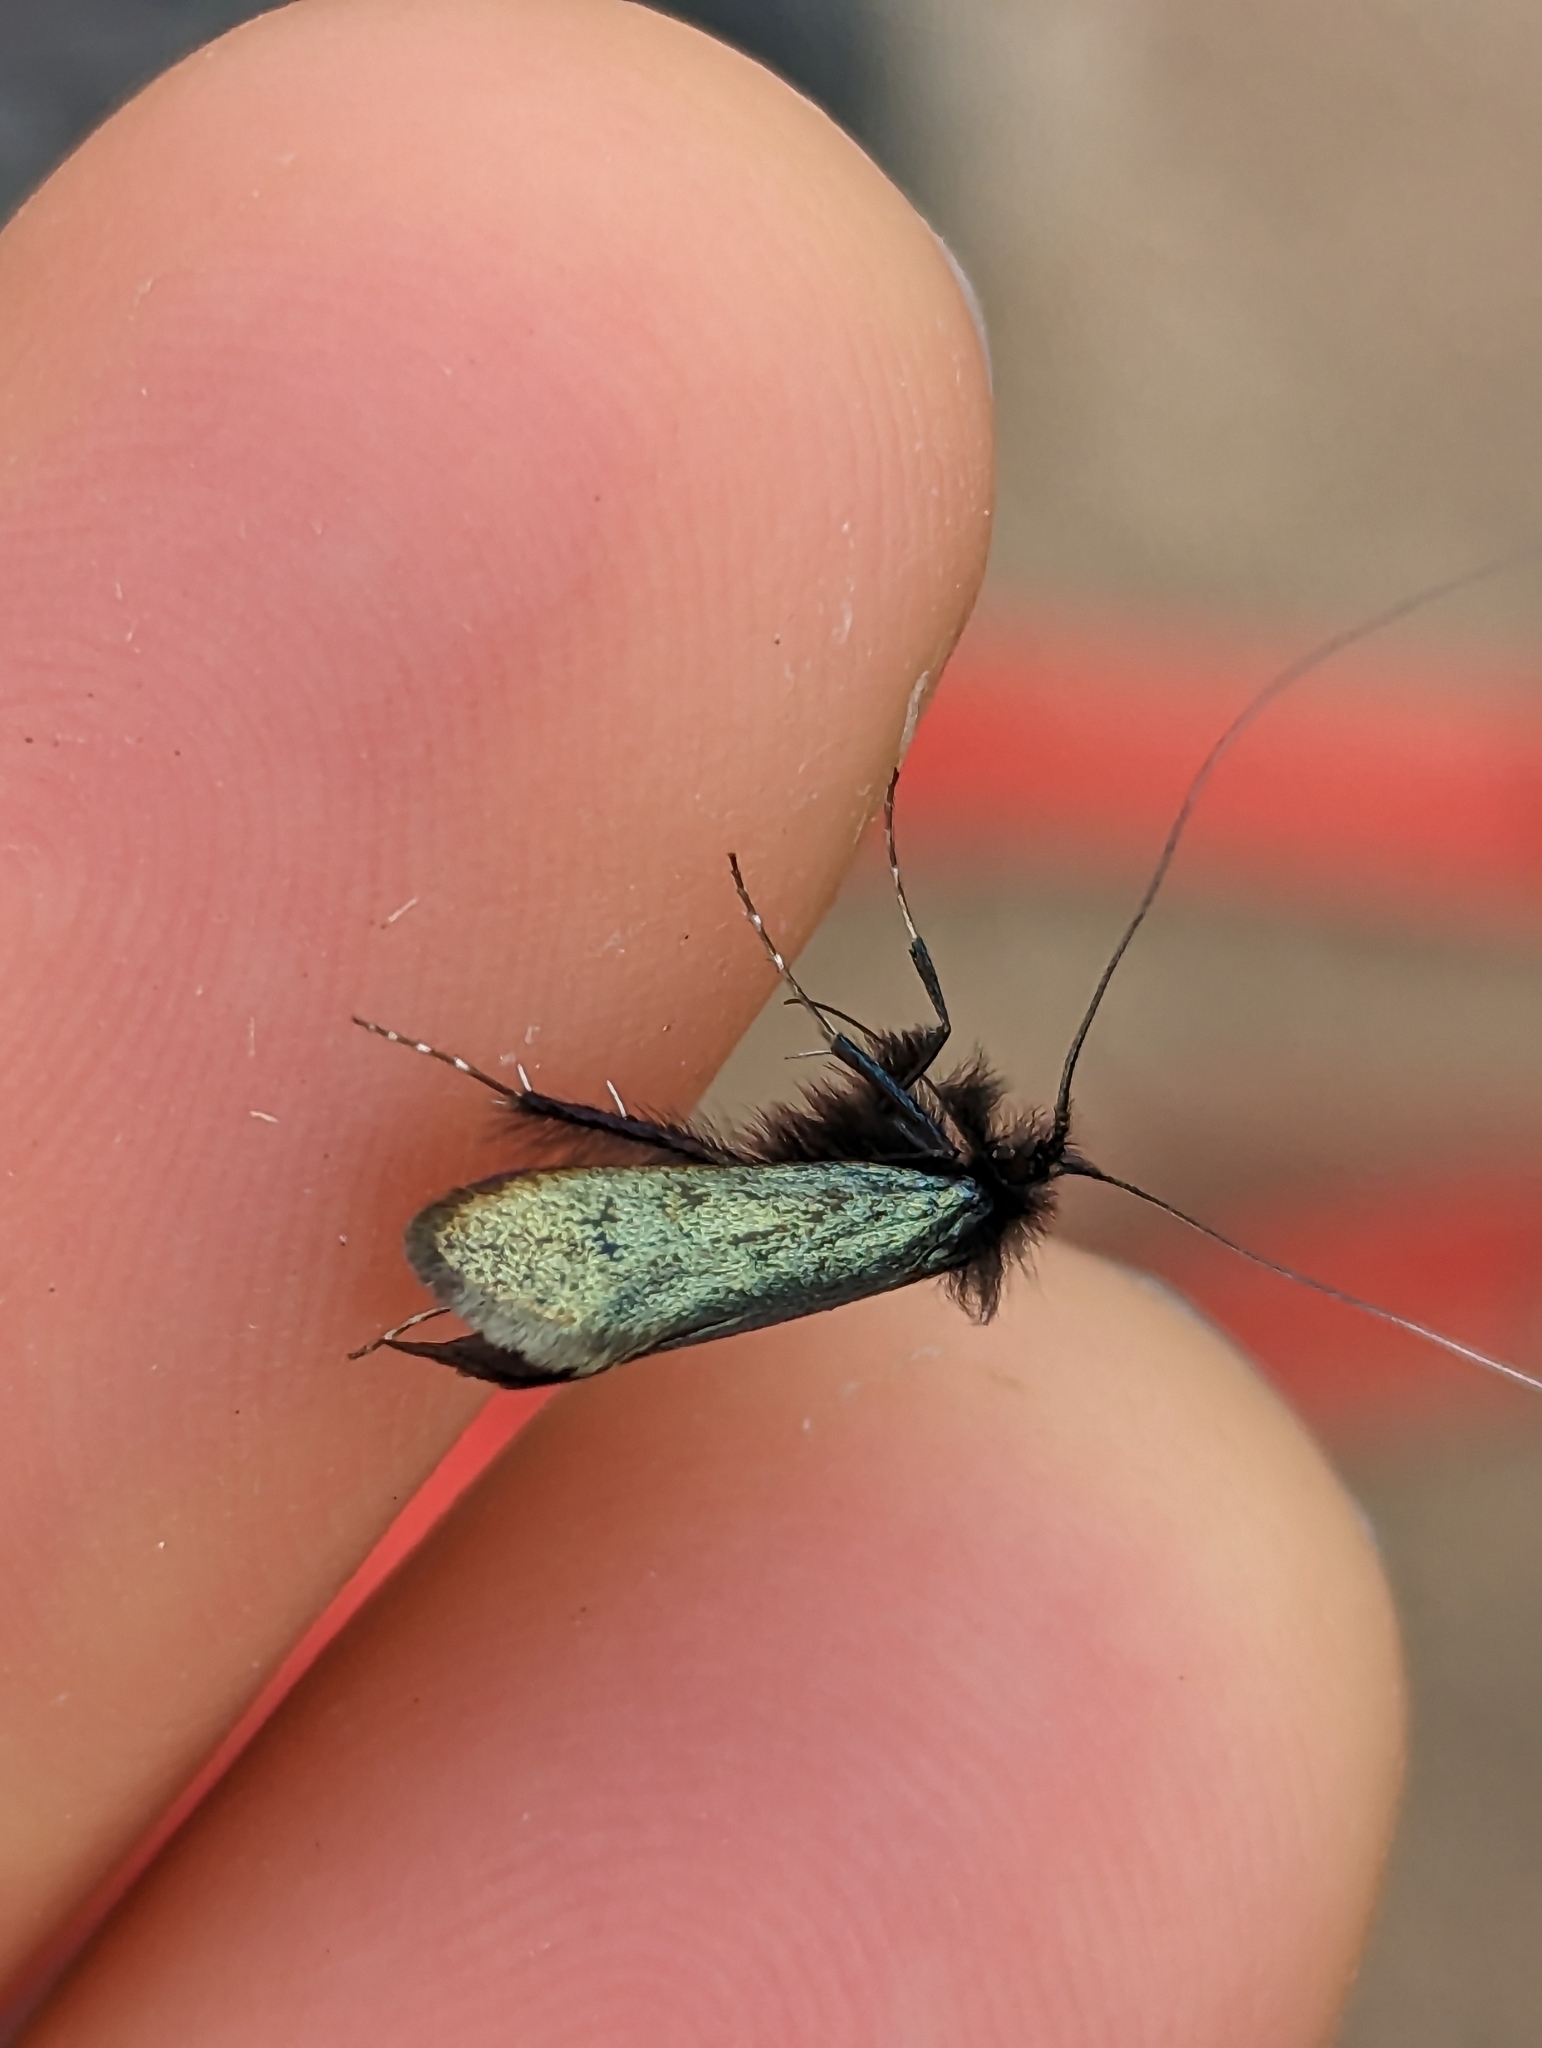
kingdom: Animalia
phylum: Arthropoda
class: Insecta
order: Lepidoptera
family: Adelidae
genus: Adela
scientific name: Adela viridella
